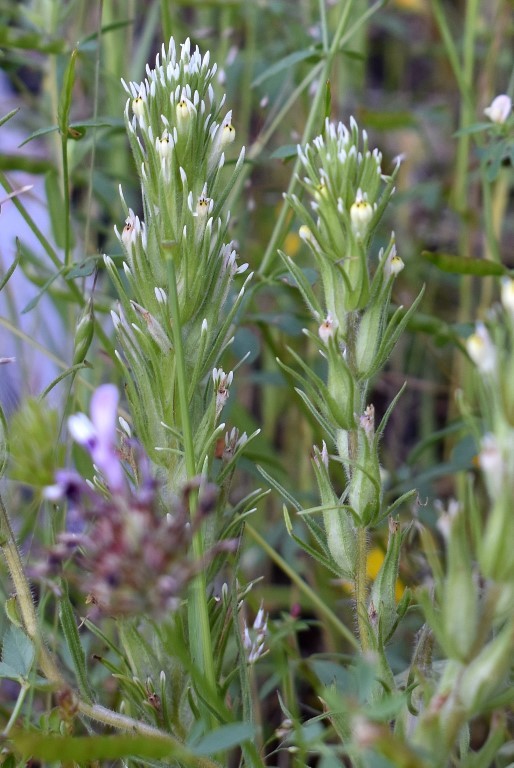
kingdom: Plantae
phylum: Tracheophyta
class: Magnoliopsida
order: Lamiales
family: Orobanchaceae
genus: Castilleja
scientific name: Castilleja attenuata
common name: Valley tassels
